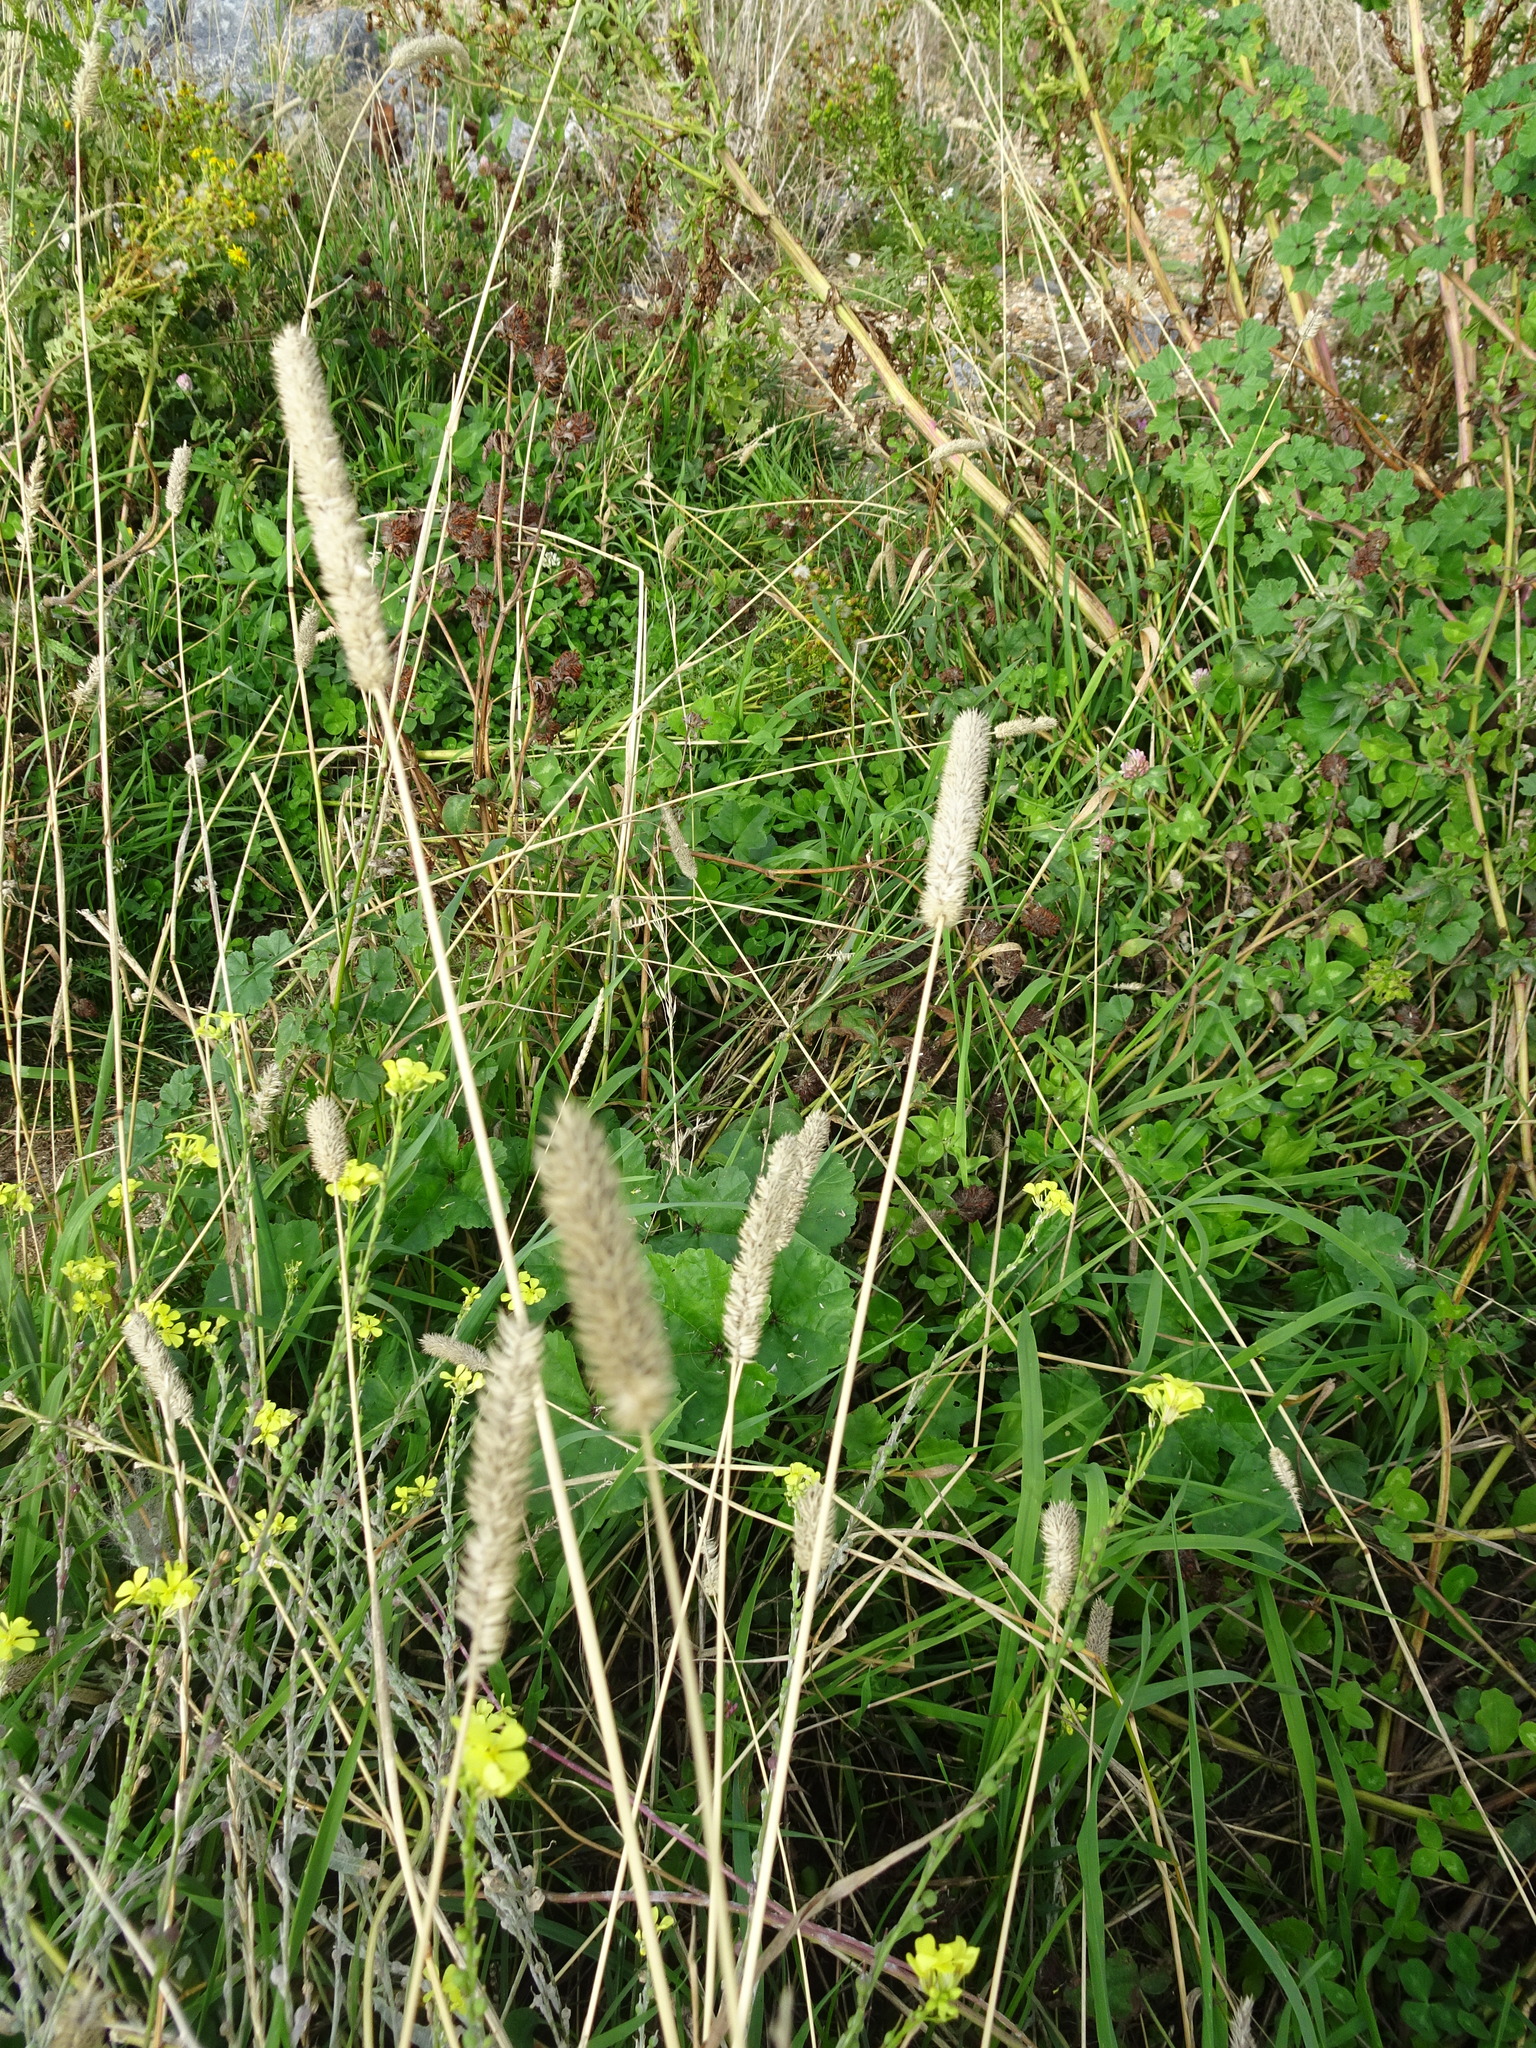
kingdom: Plantae
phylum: Tracheophyta
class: Liliopsida
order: Poales
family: Poaceae
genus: Phleum
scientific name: Phleum pratense
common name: Timothy grass
